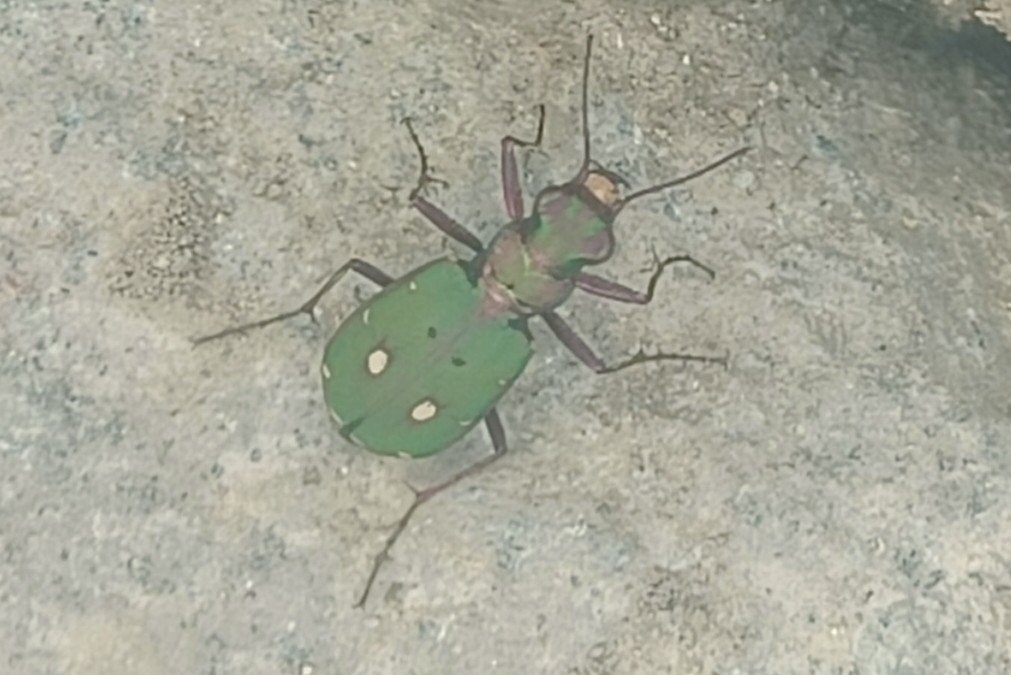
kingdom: Animalia
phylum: Arthropoda
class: Insecta
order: Coleoptera
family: Carabidae
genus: Cicindela
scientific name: Cicindela campestris
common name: Common tiger beetle
